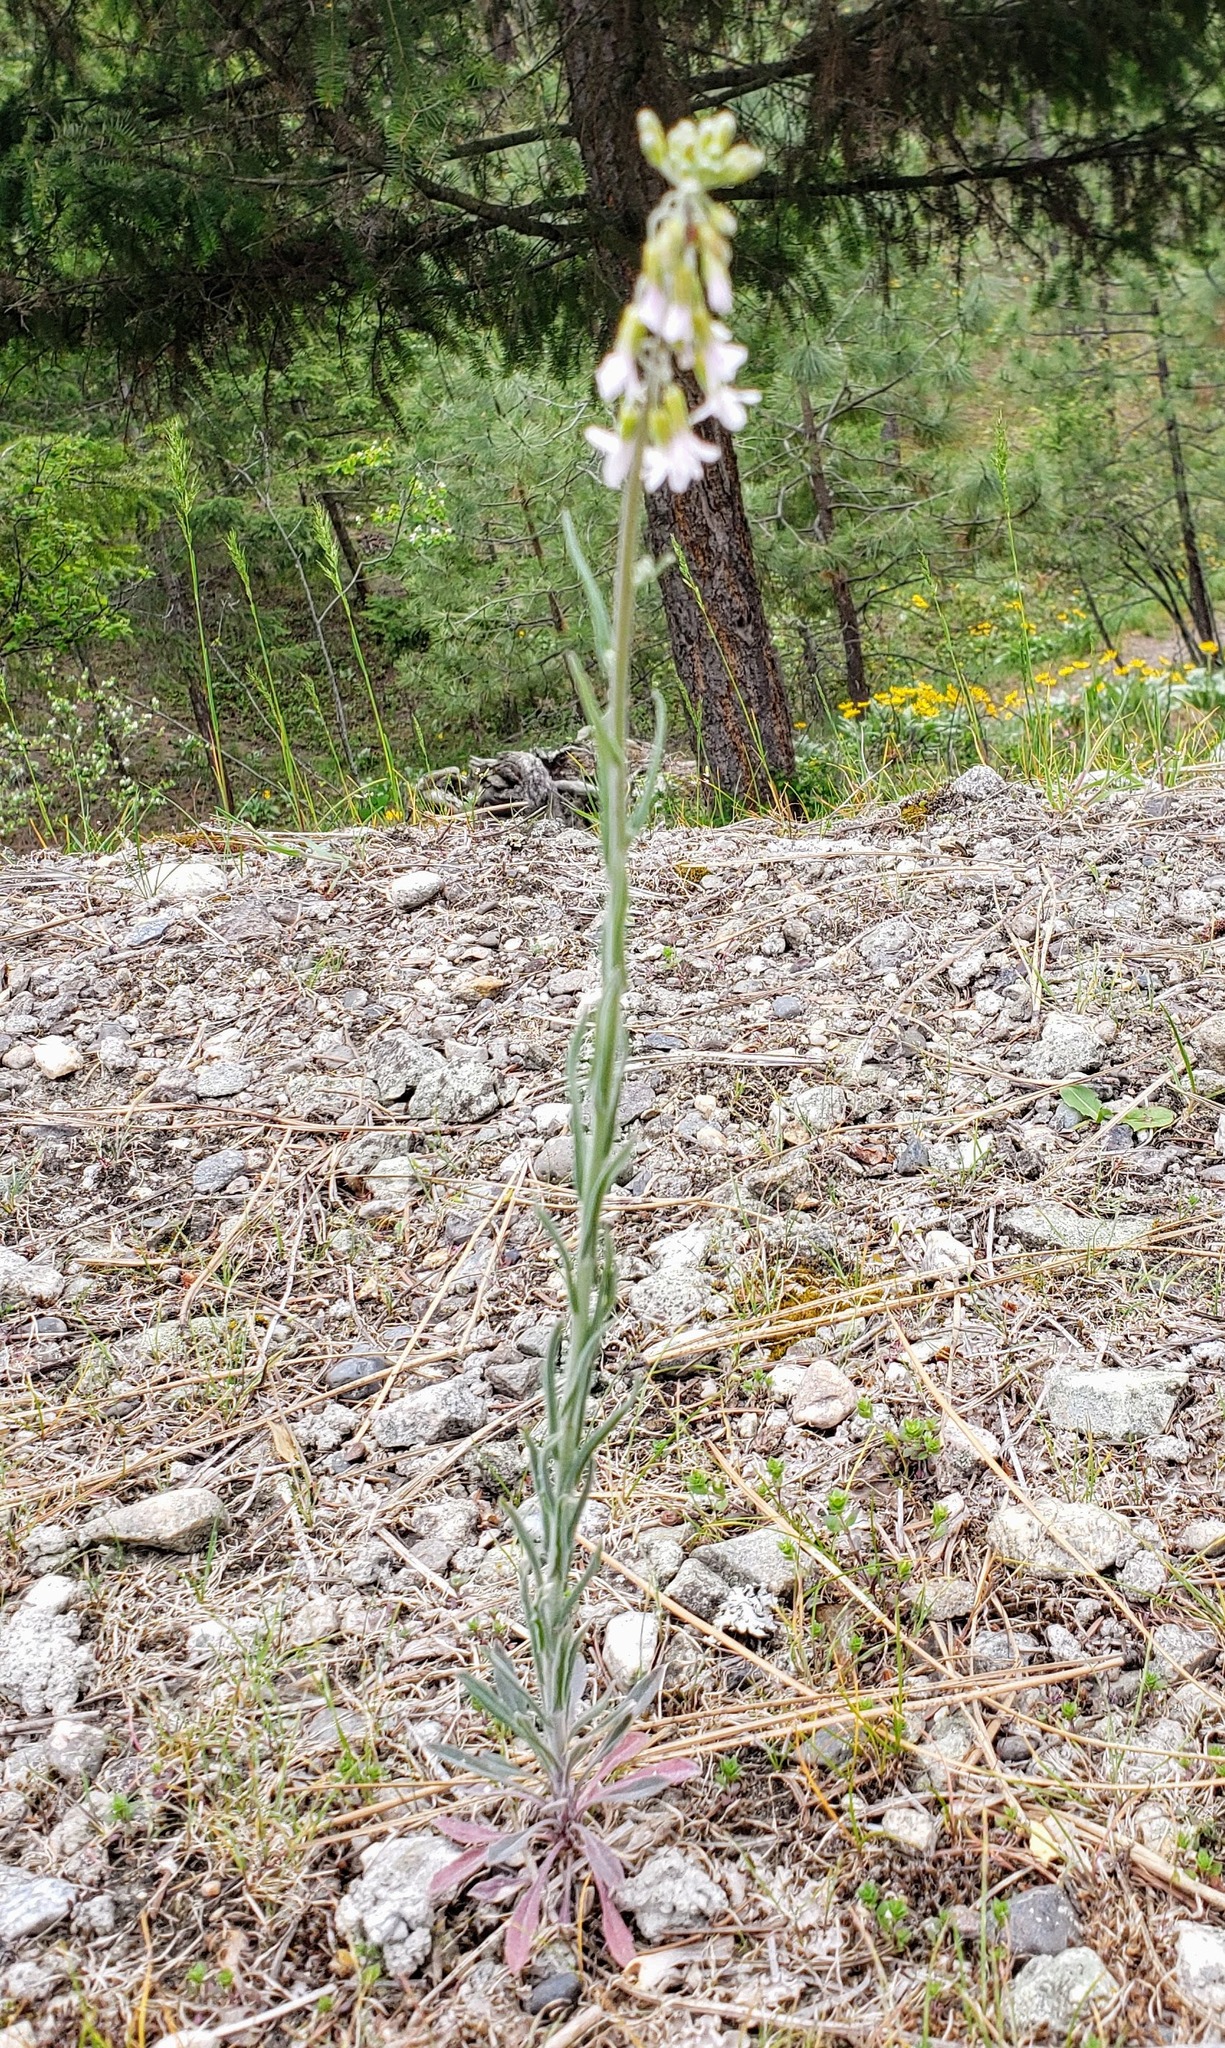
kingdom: Plantae
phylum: Tracheophyta
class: Magnoliopsida
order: Brassicales
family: Brassicaceae
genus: Boechera
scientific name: Boechera retrofracta
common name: Dangling suncress
